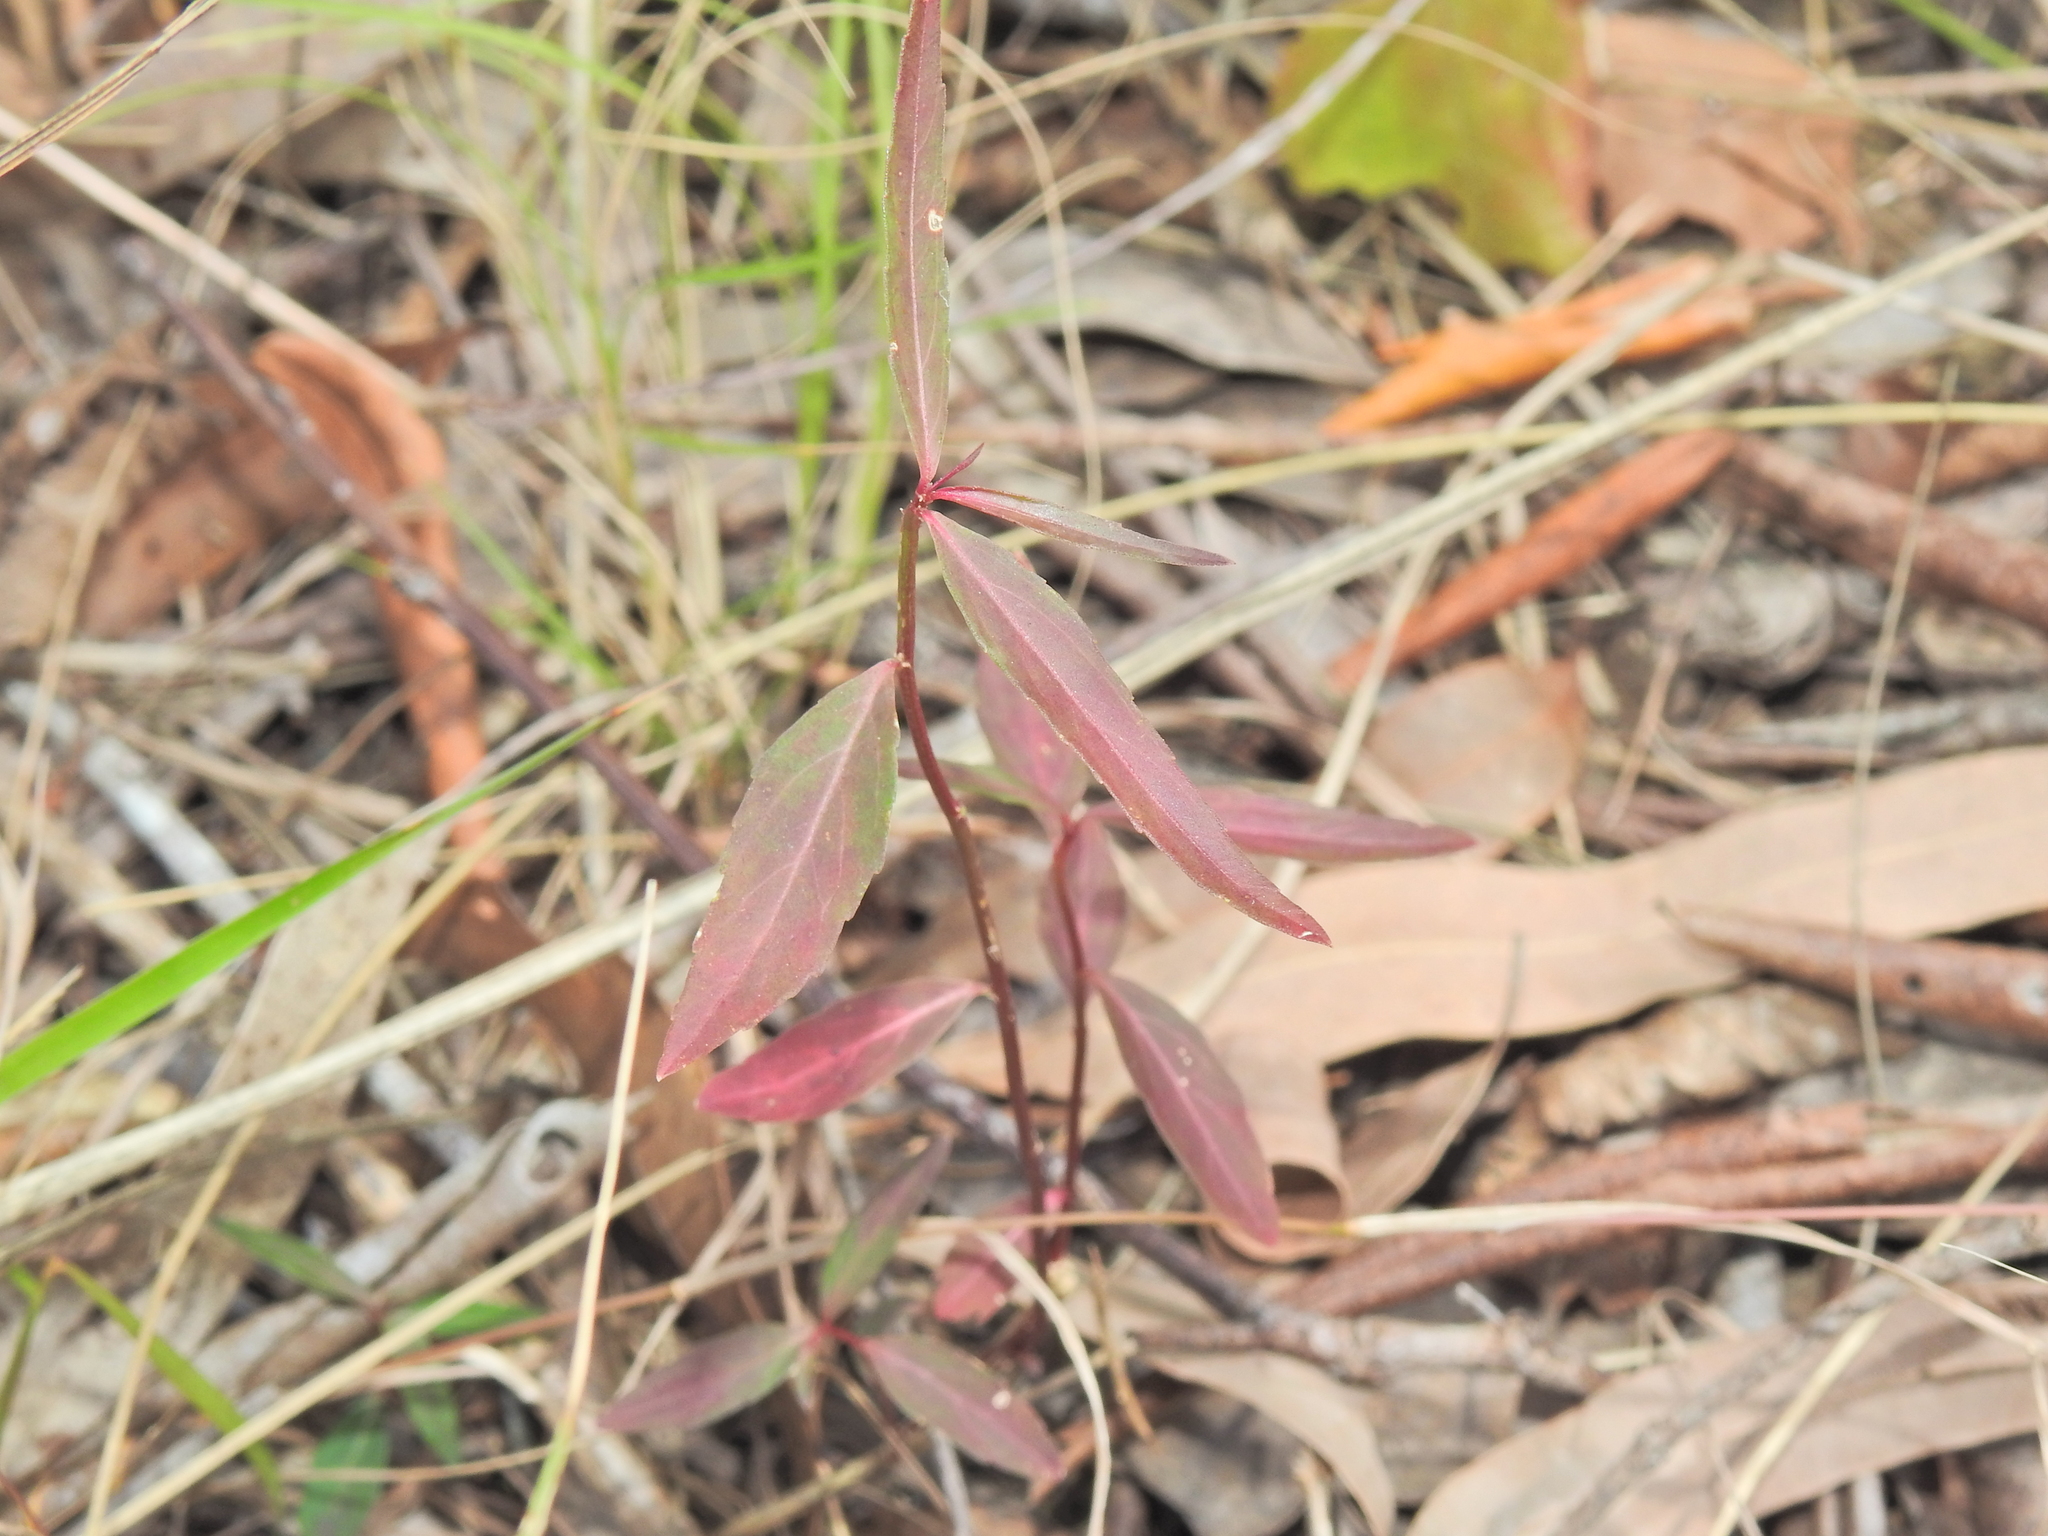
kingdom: Plantae
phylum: Tracheophyta
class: Magnoliopsida
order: Malpighiales
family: Violaceae
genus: Pigea
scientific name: Pigea stellarioides
